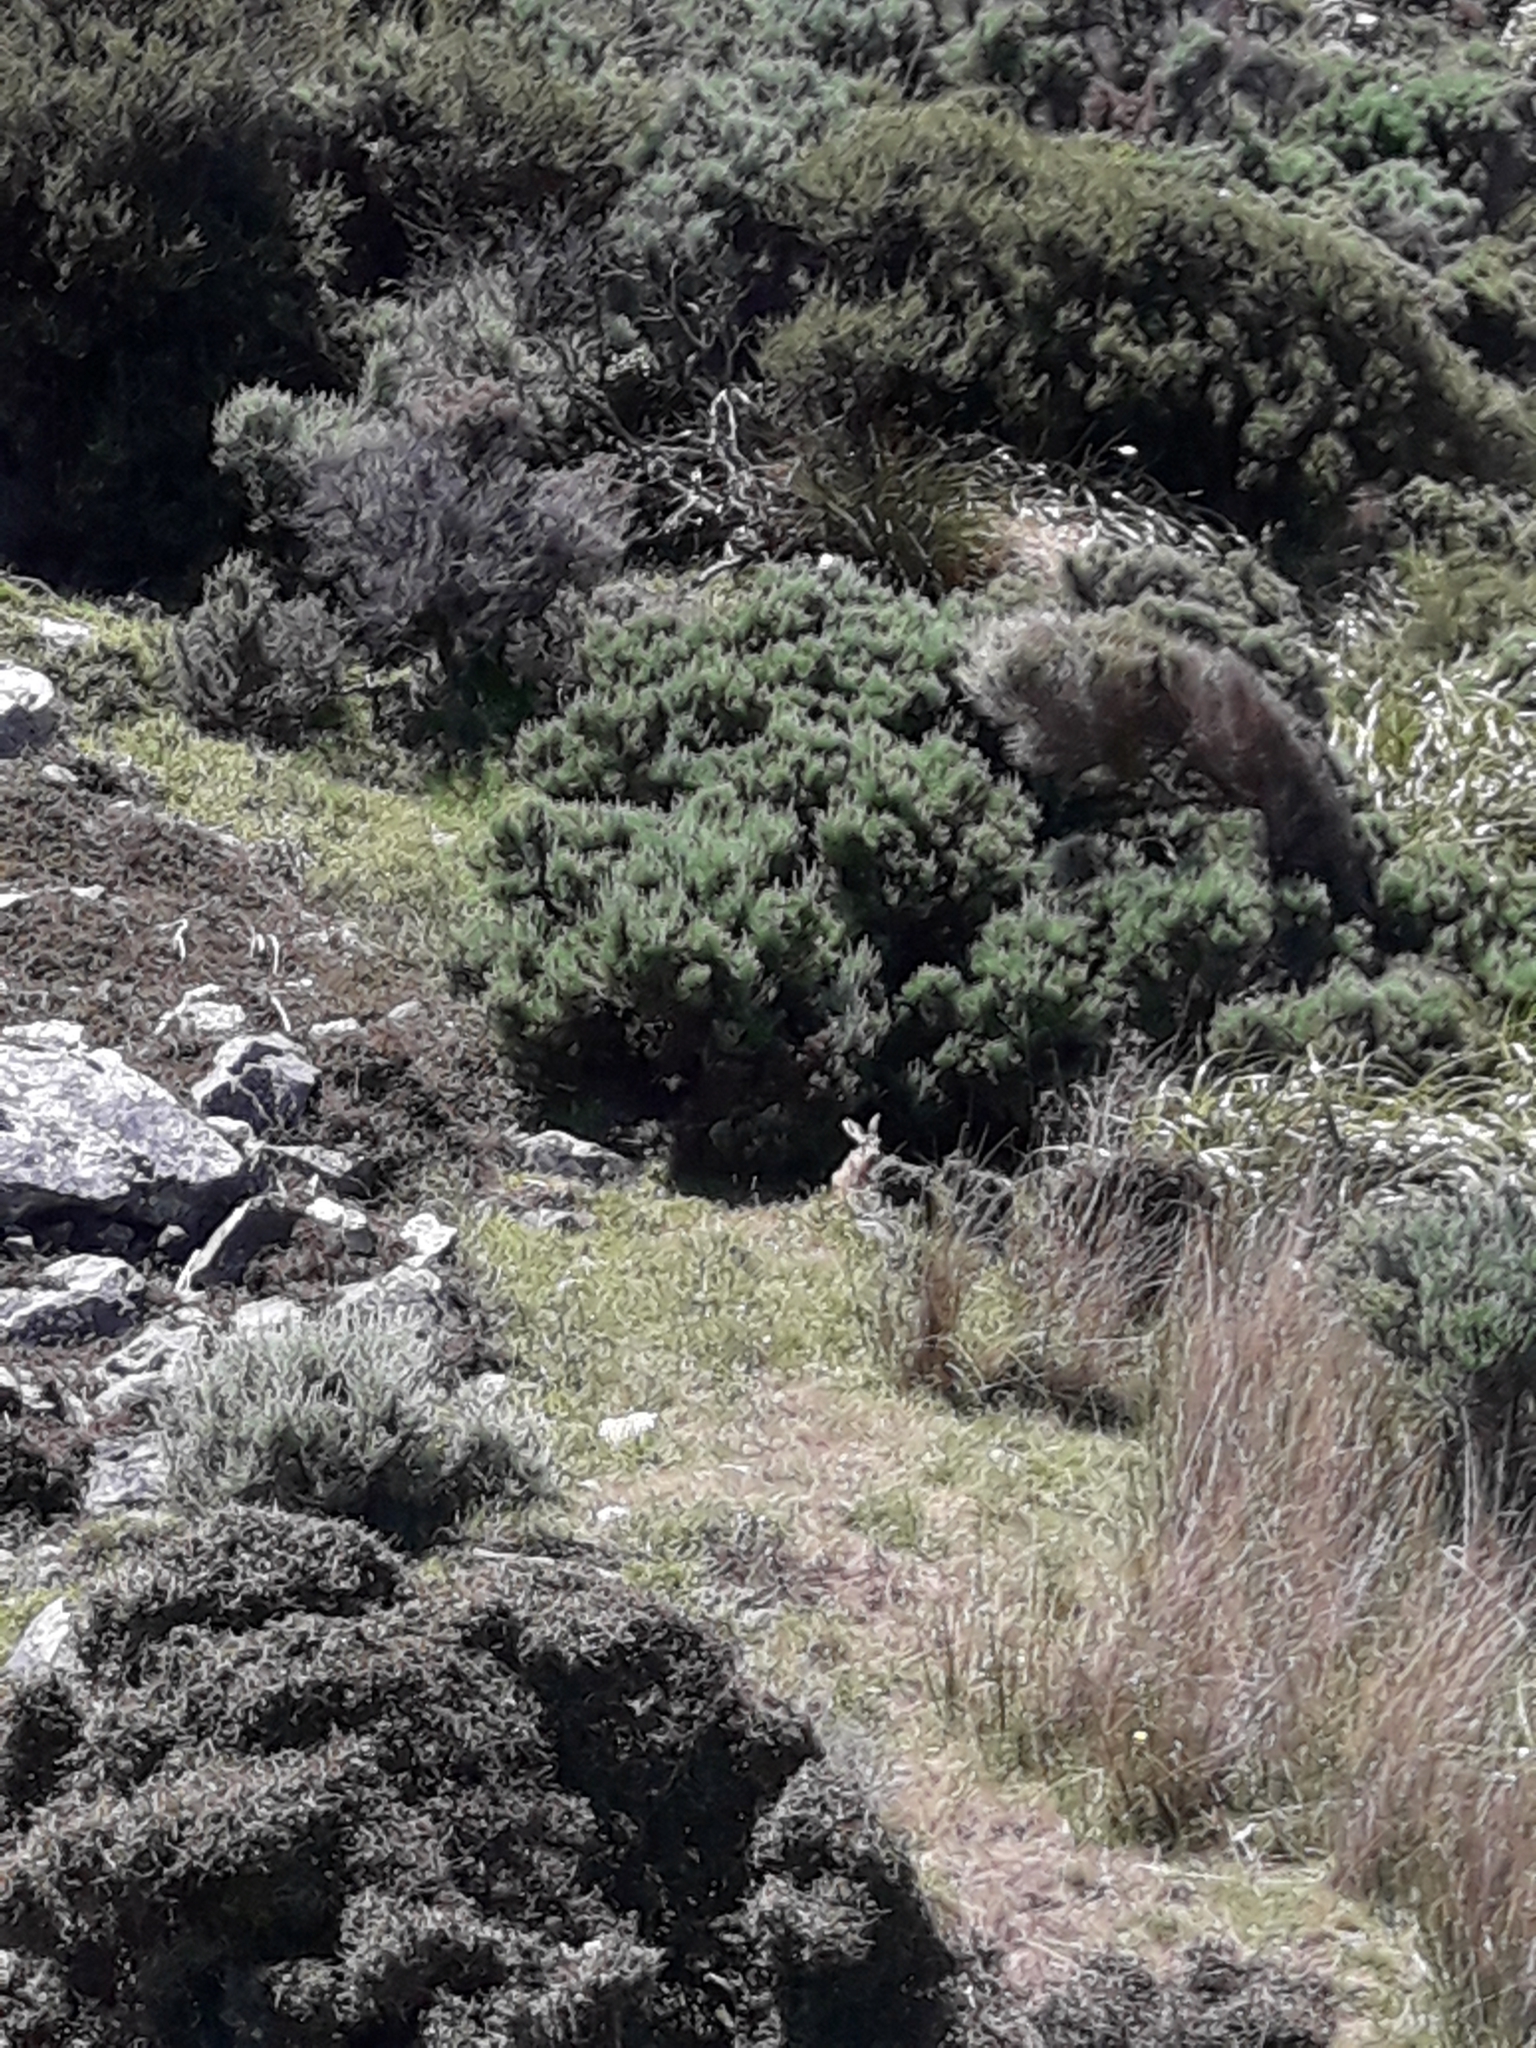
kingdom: Animalia
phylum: Chordata
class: Mammalia
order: Lagomorpha
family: Leporidae
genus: Lepus
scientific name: Lepus europaeus
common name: European hare
